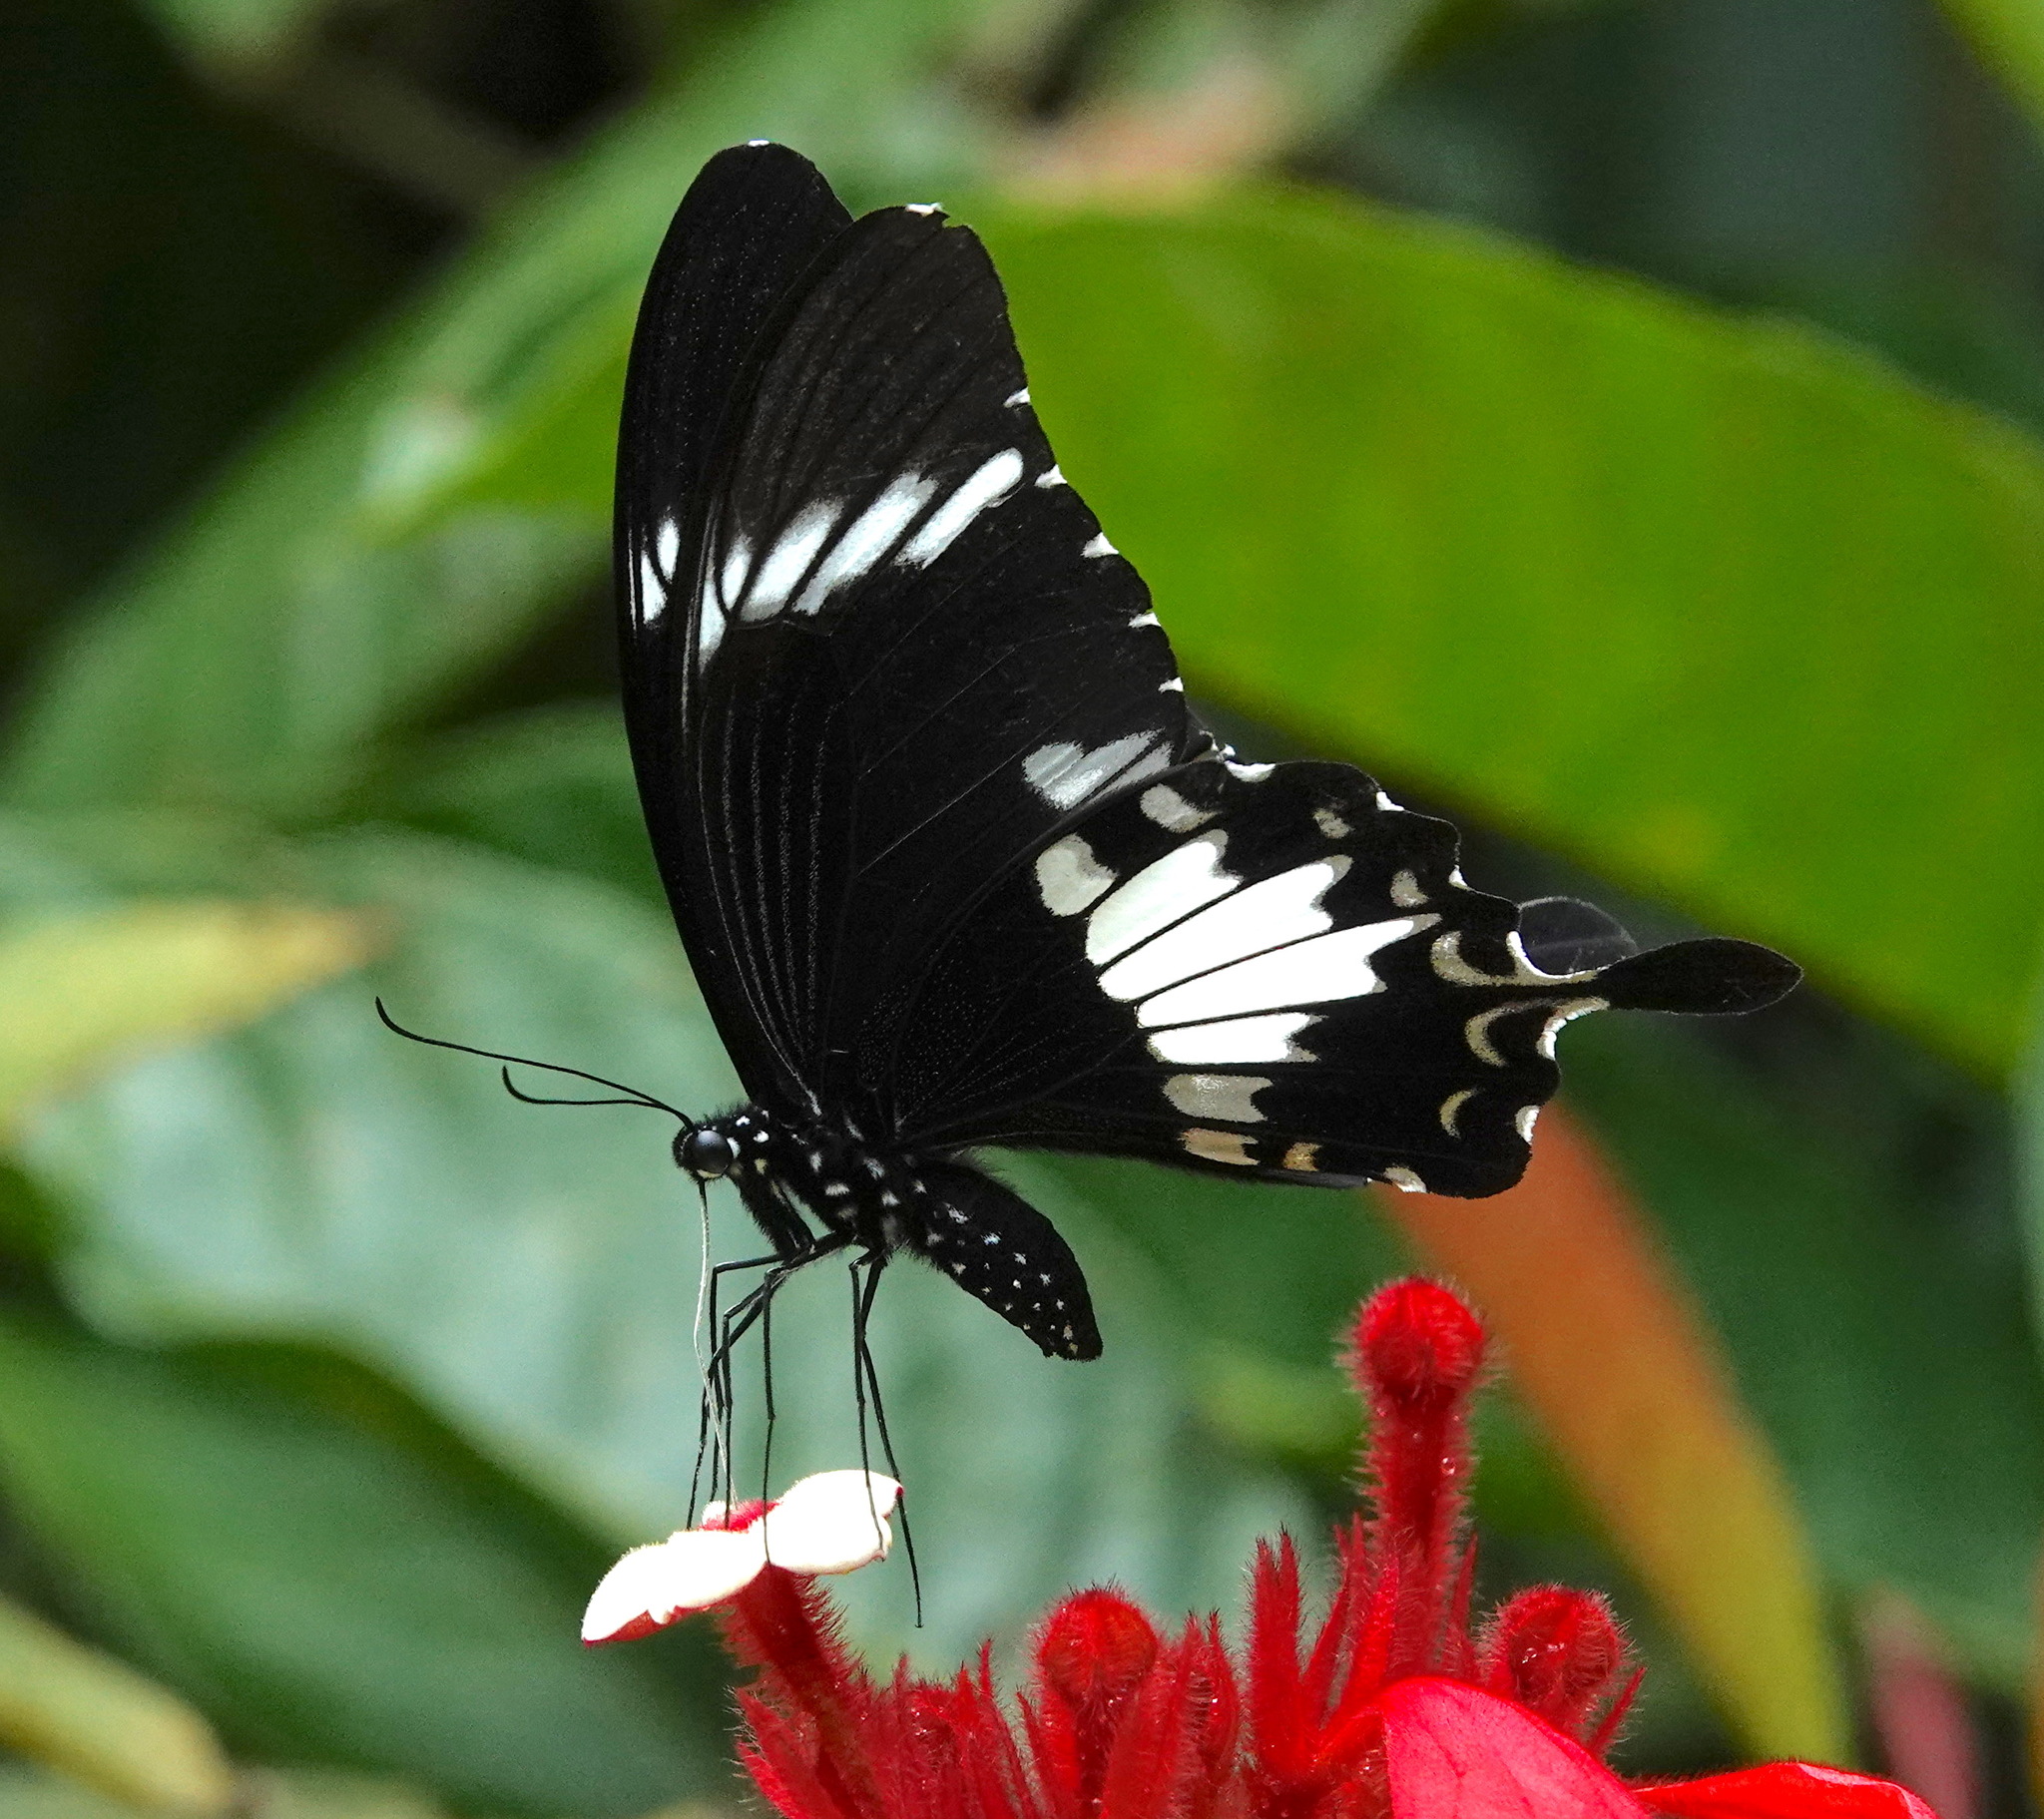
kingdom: Animalia
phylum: Arthropoda
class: Insecta
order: Lepidoptera
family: Papilionidae
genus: Papilio
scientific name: Papilio nephelus
